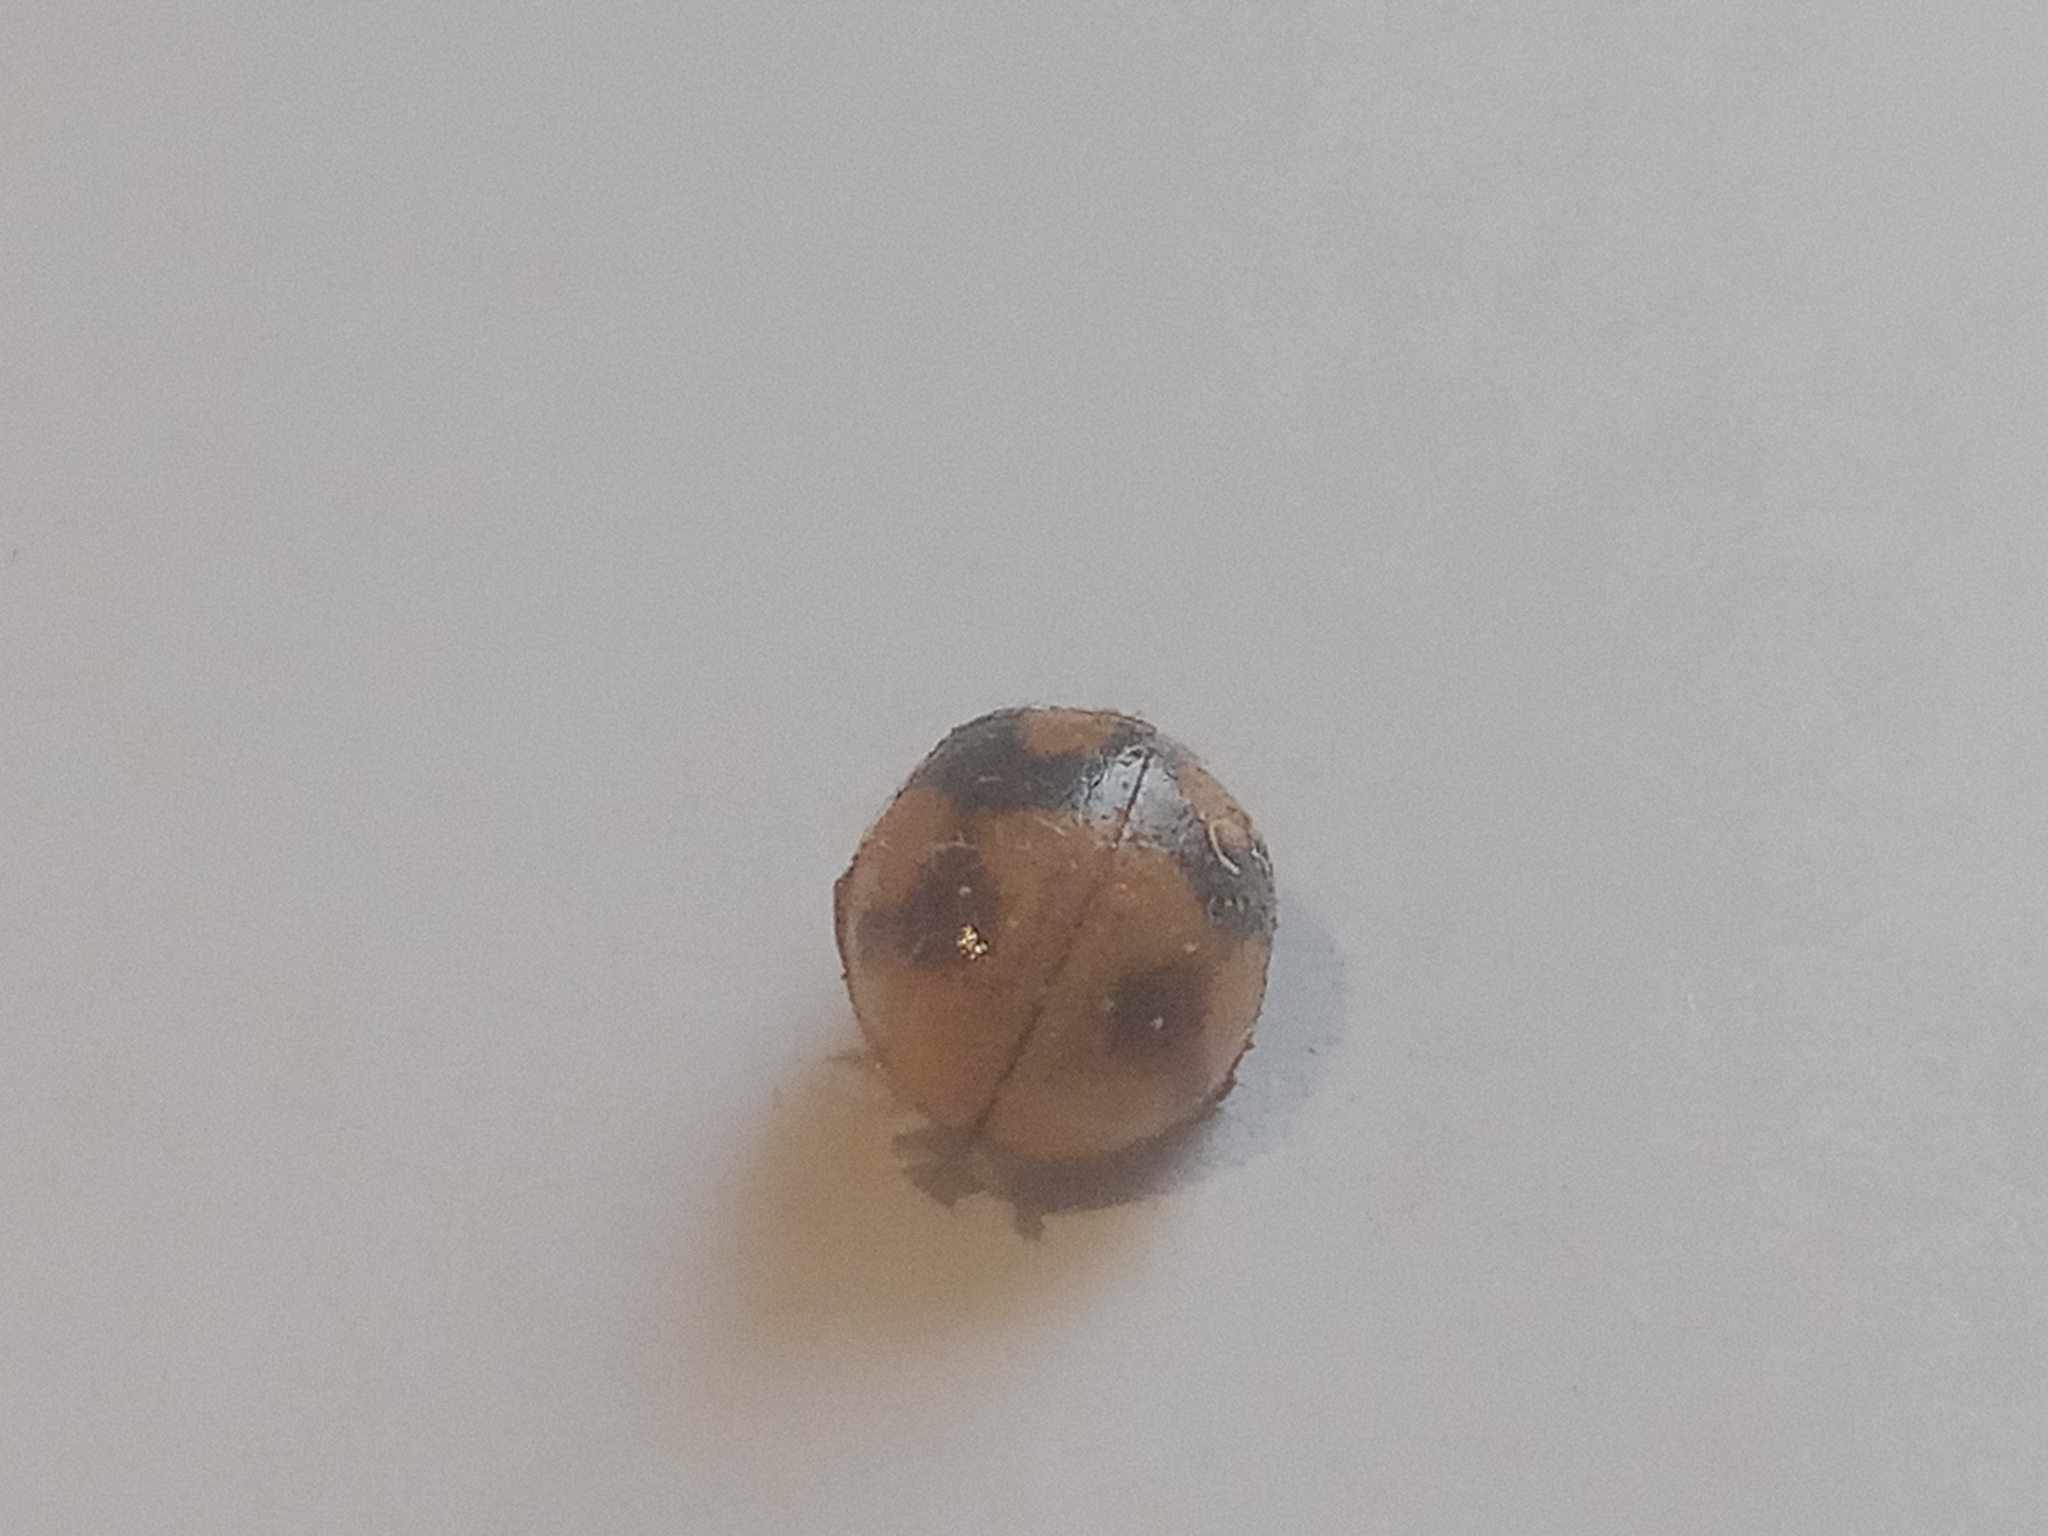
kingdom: Animalia
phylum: Arthropoda
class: Insecta
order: Coleoptera
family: Coccinellidae
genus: Coccinella
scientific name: Coccinella hieroglyphica
